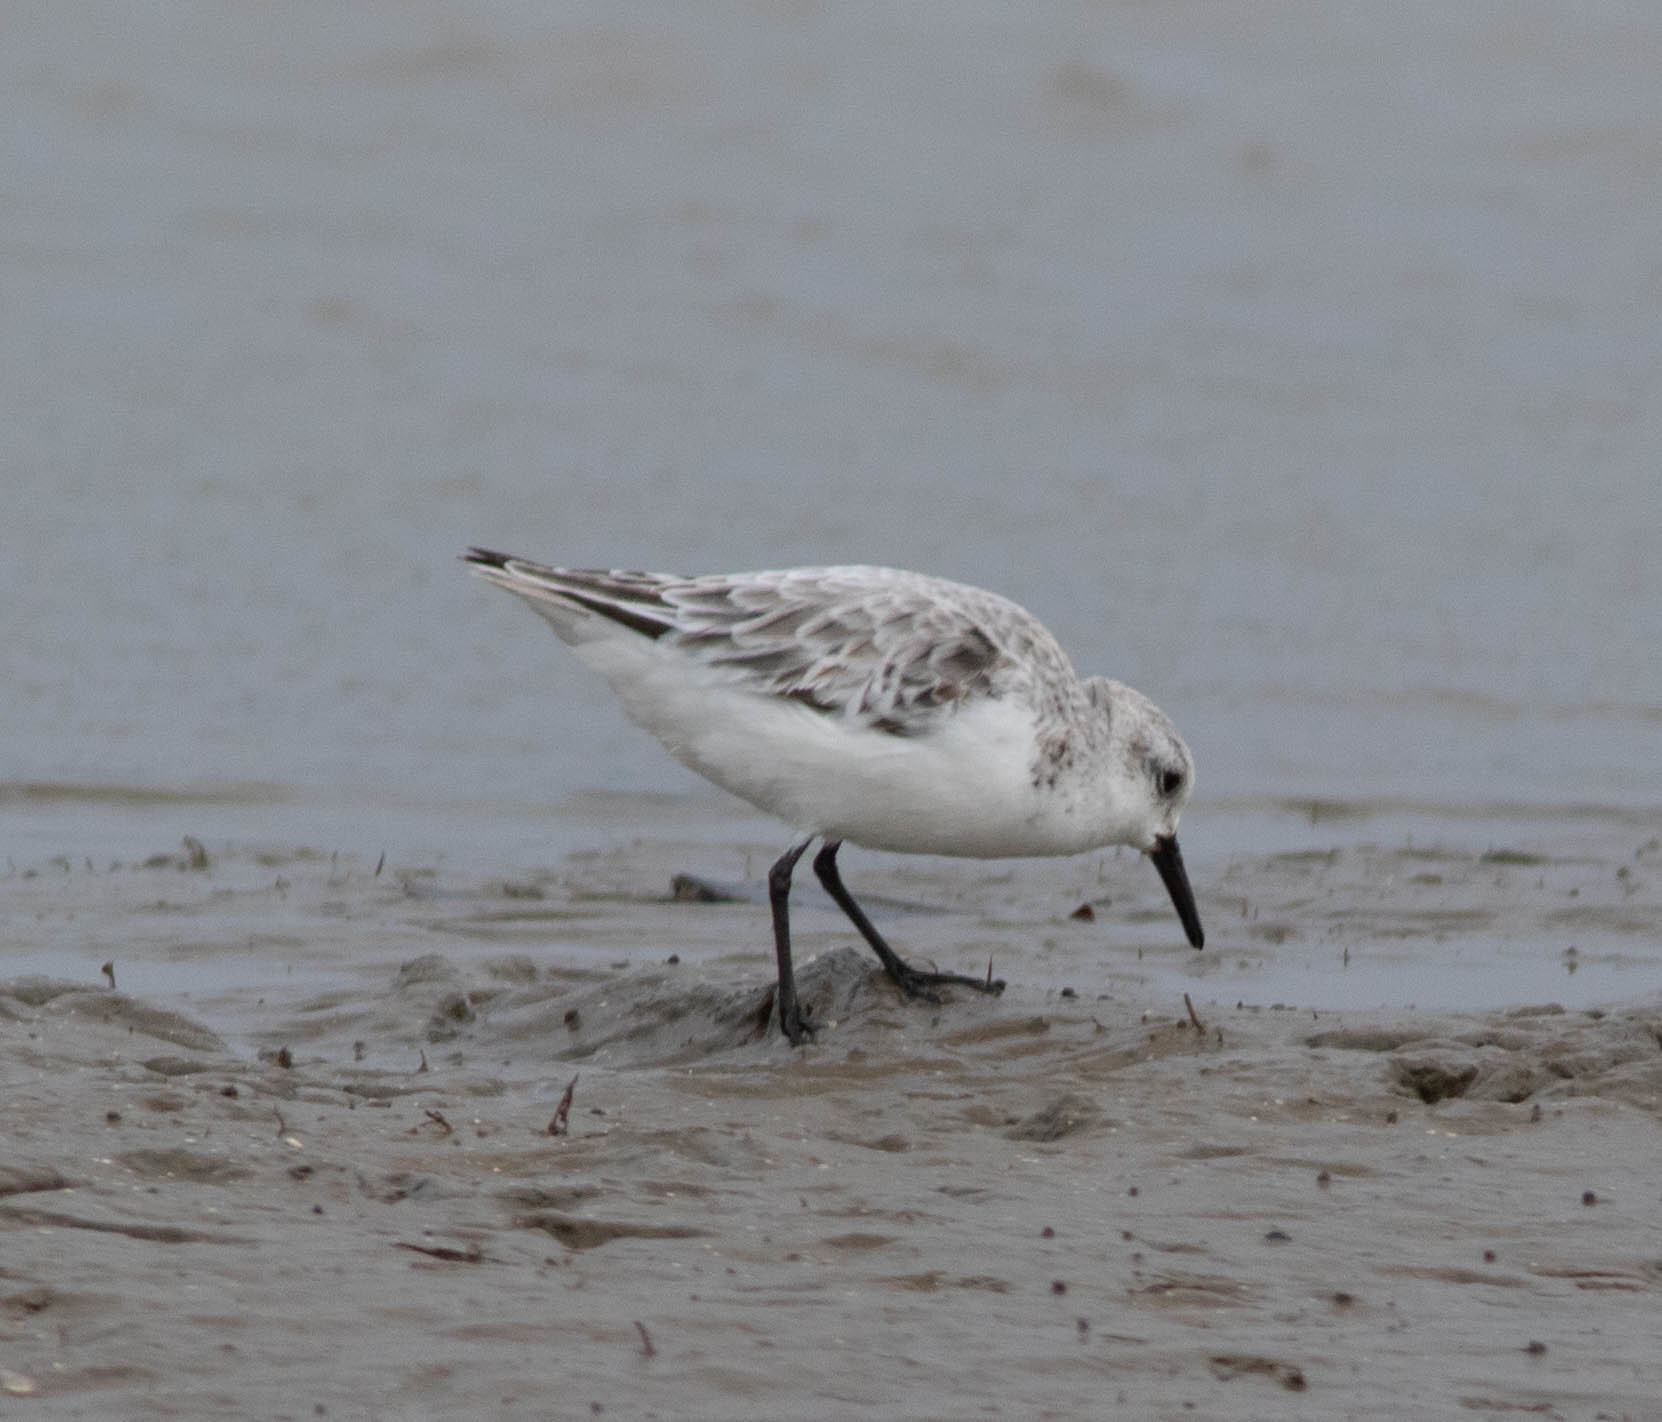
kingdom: Animalia
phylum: Chordata
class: Aves
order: Charadriiformes
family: Scolopacidae
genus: Calidris
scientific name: Calidris alba
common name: Sanderling
